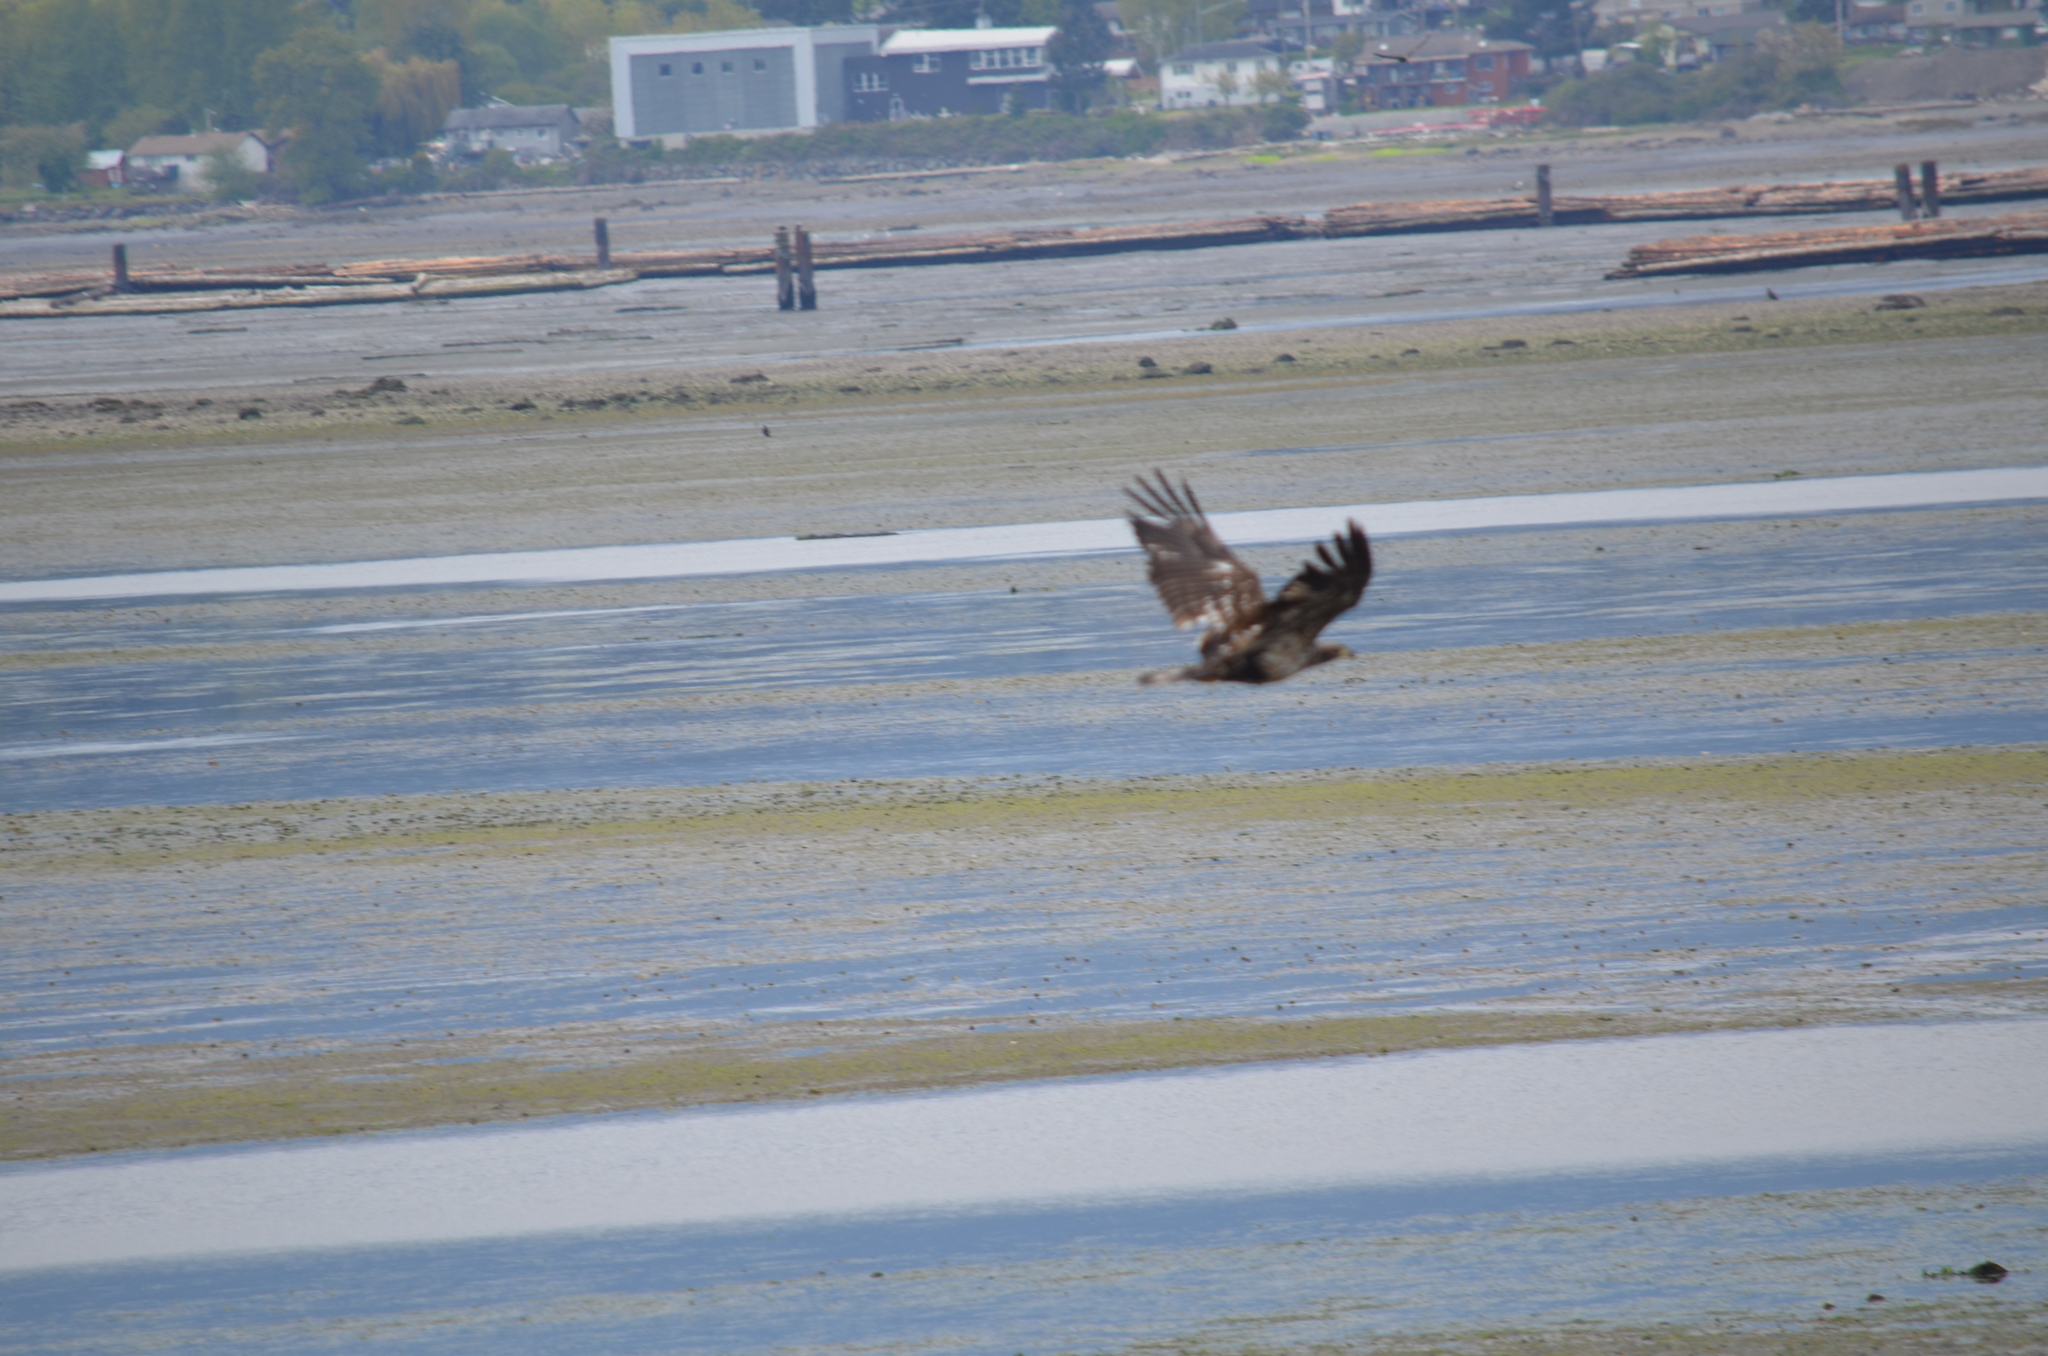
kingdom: Animalia
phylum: Chordata
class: Aves
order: Accipitriformes
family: Accipitridae
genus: Haliaeetus
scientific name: Haliaeetus leucocephalus
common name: Bald eagle
